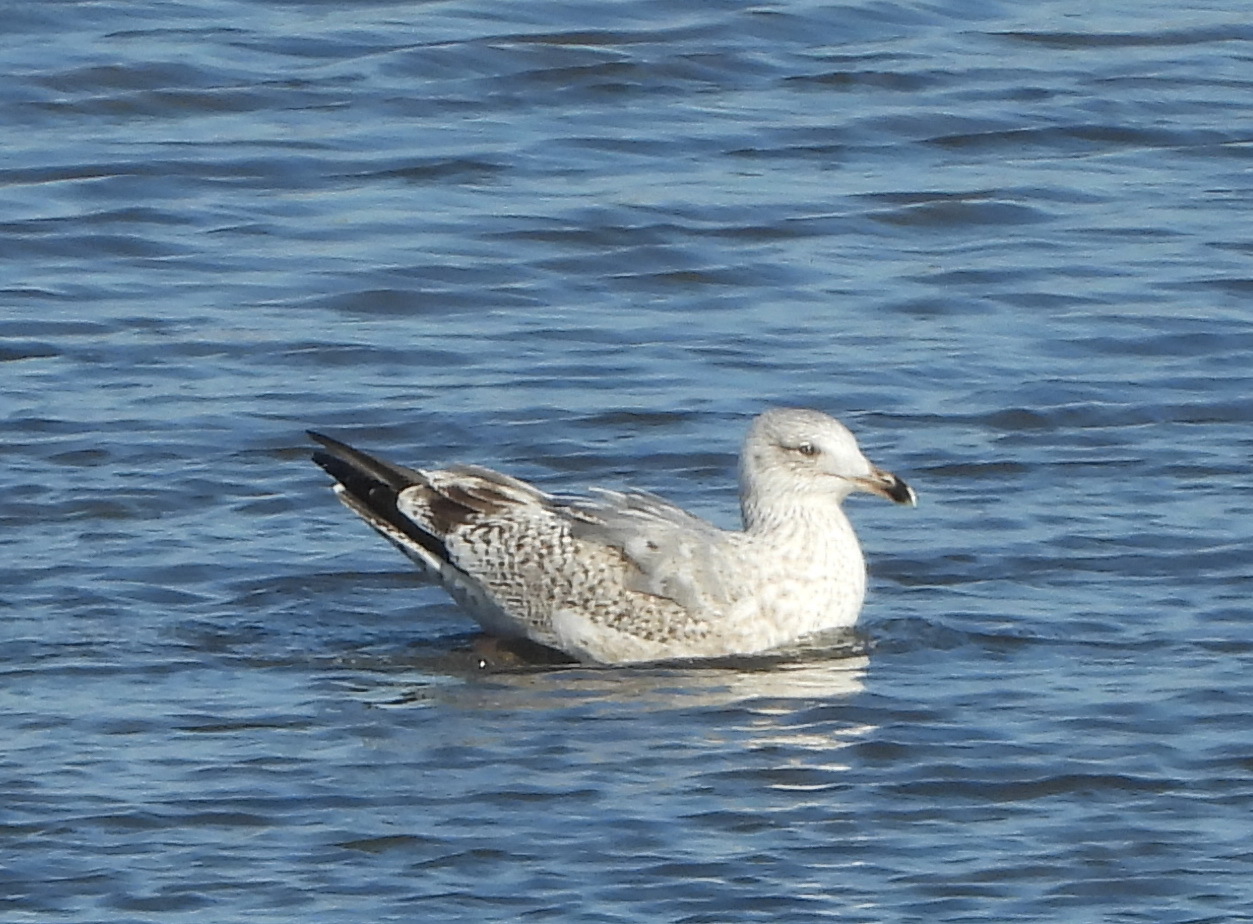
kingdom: Animalia
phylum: Chordata
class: Aves
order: Charadriiformes
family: Laridae
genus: Larus
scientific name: Larus argentatus
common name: Herring gull
